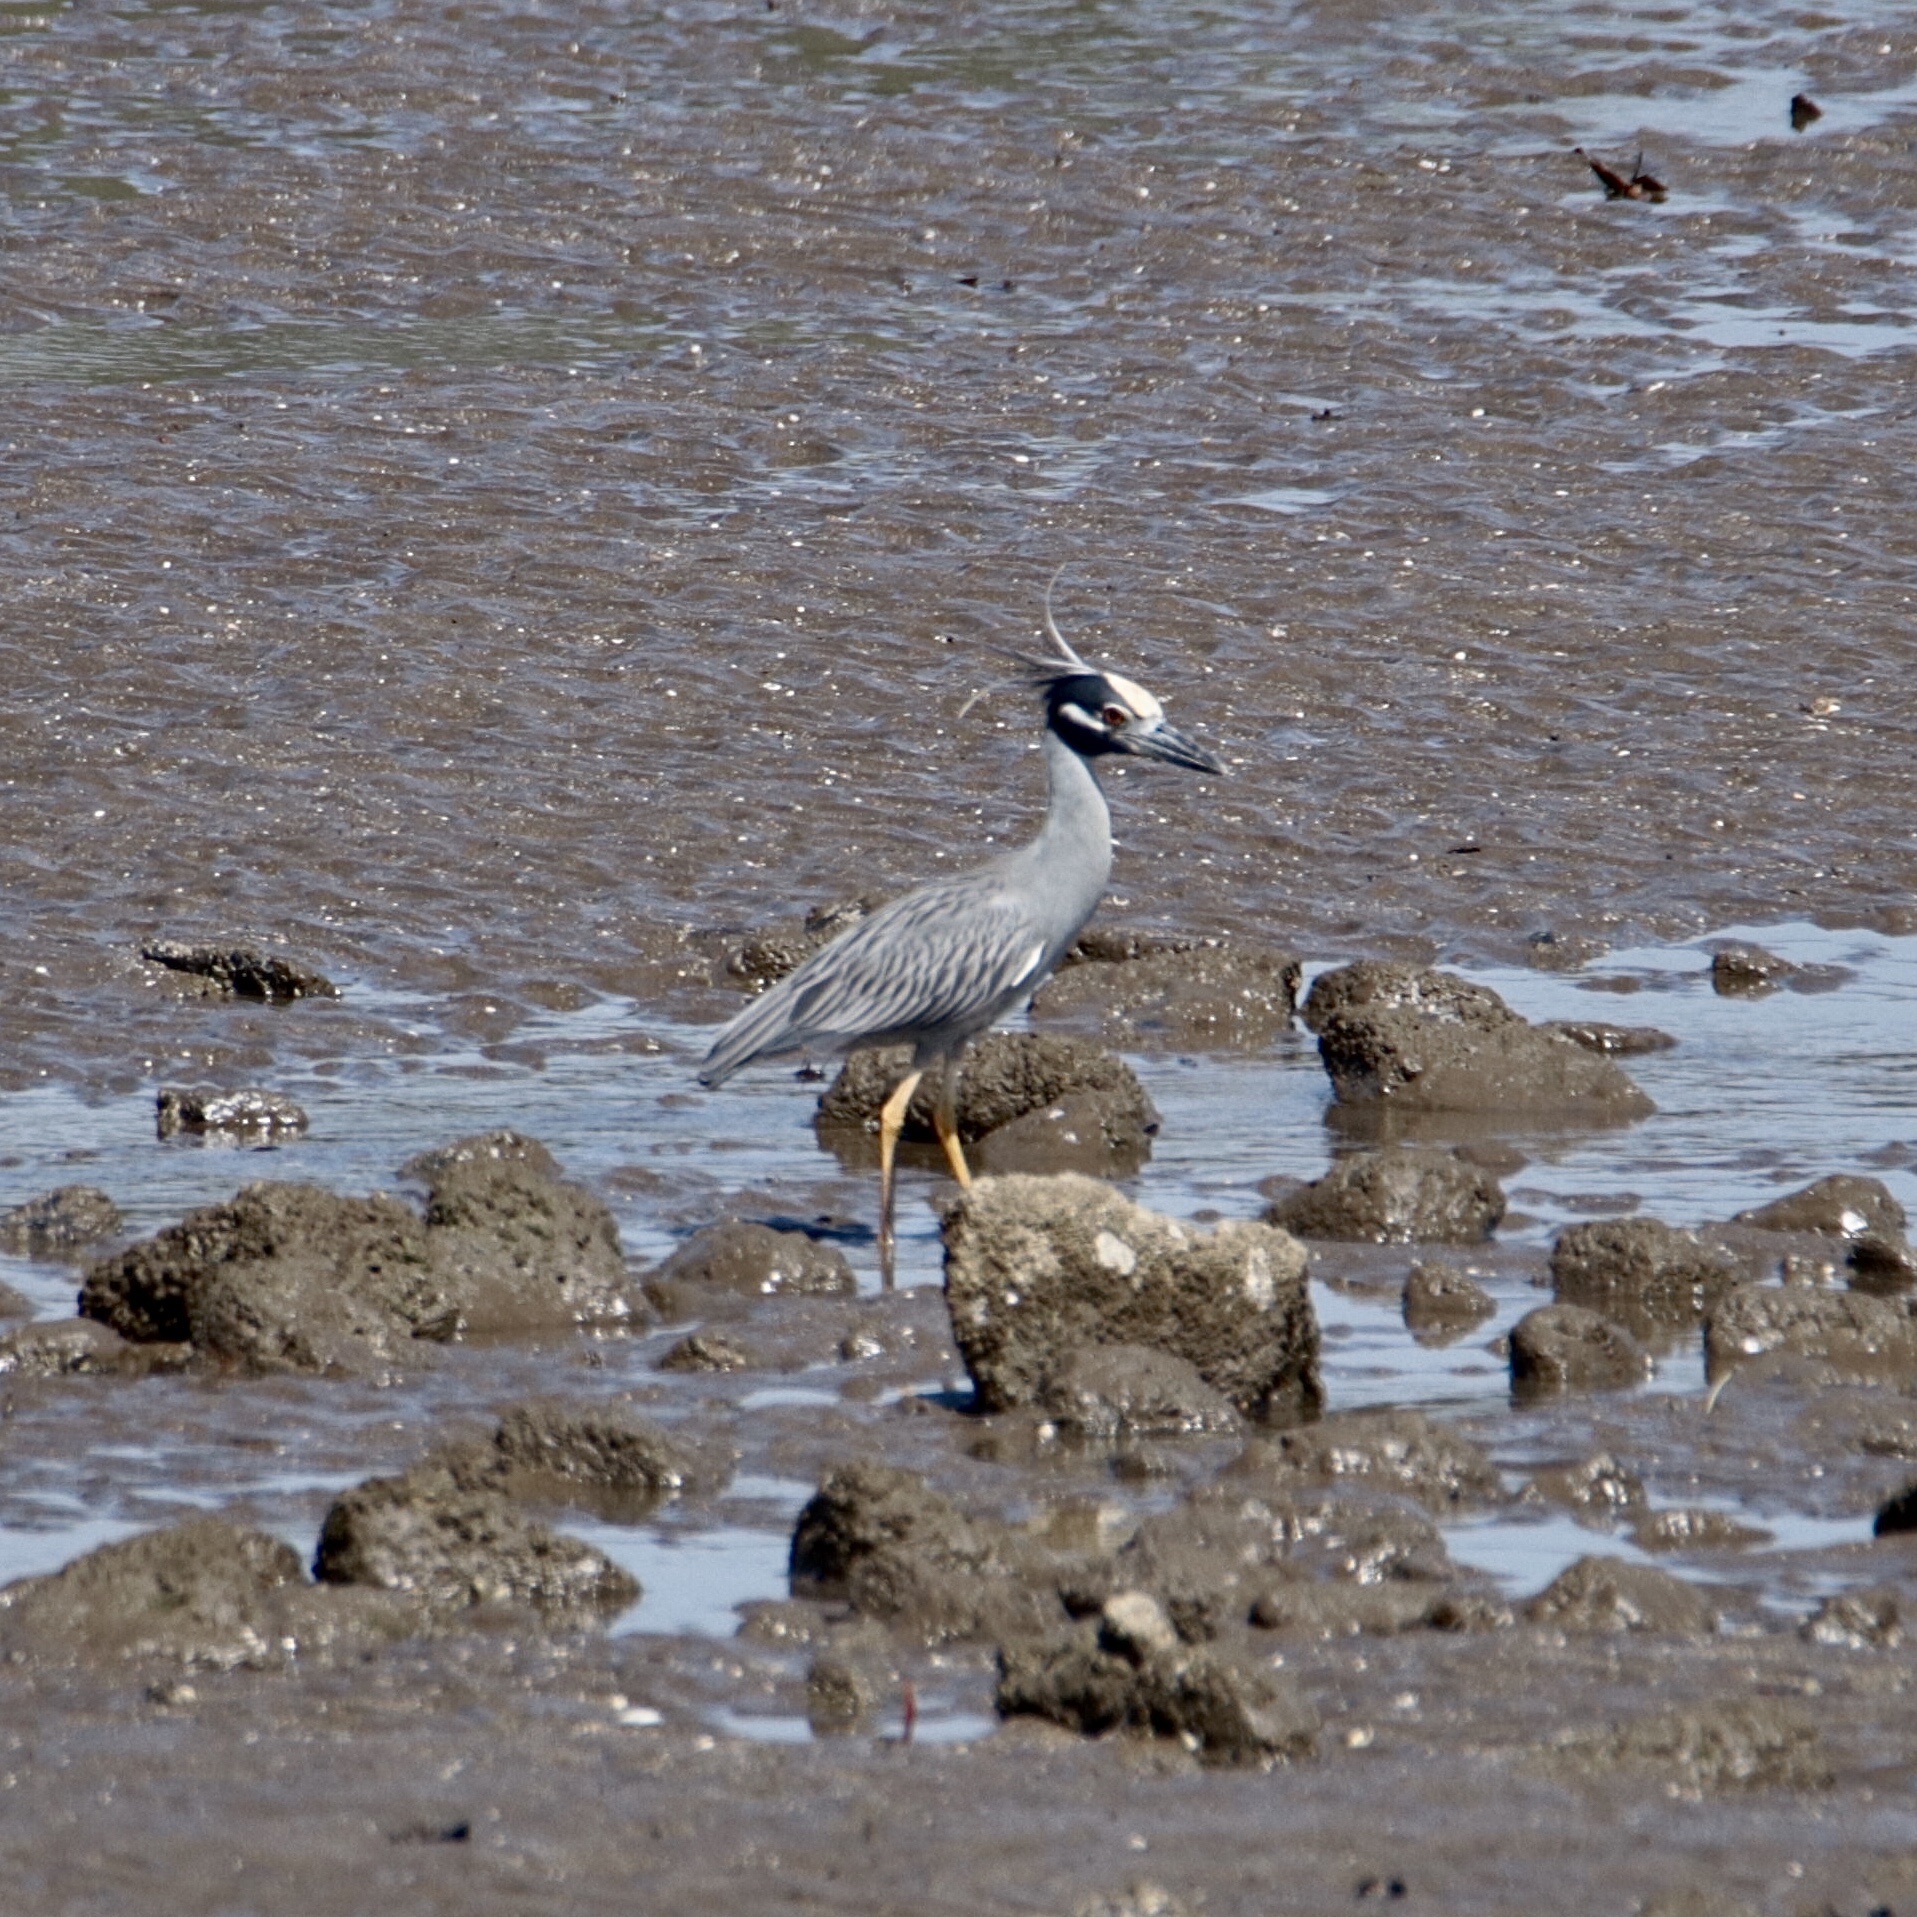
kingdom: Animalia
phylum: Chordata
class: Aves
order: Pelecaniformes
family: Ardeidae
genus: Nyctanassa
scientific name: Nyctanassa violacea
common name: Yellow-crowned night heron
